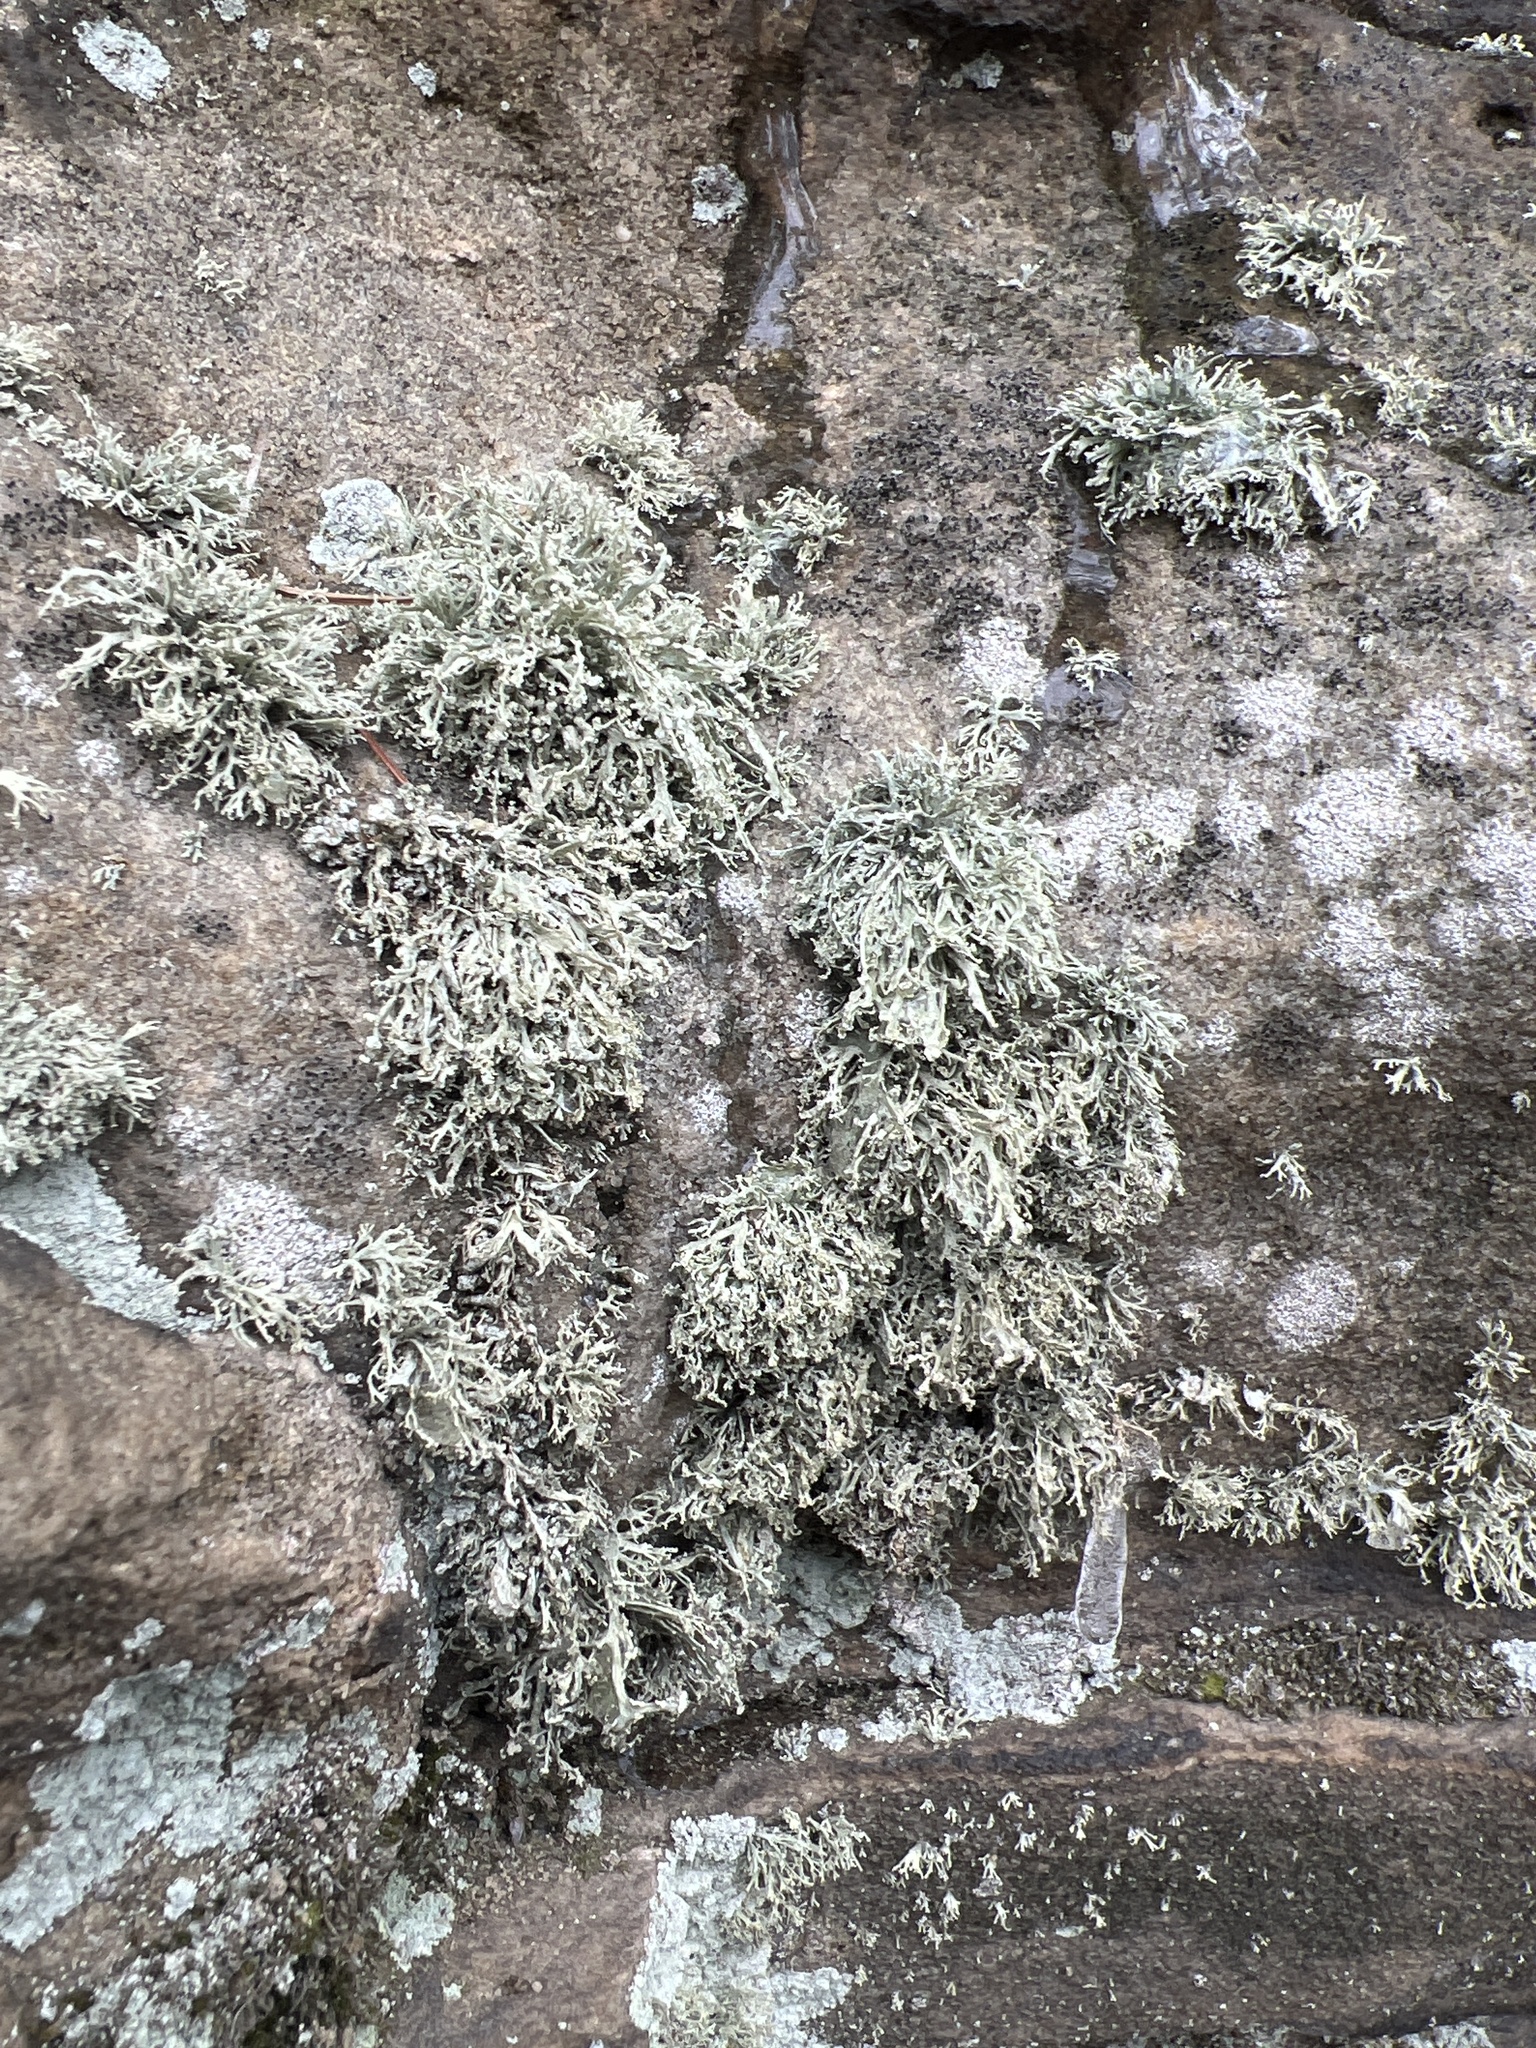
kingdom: Fungi
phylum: Ascomycota
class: Lecanoromycetes
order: Lecanorales
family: Ramalinaceae
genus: Ramalina
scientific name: Ramalina intermedia
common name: Rock bushy lichen
